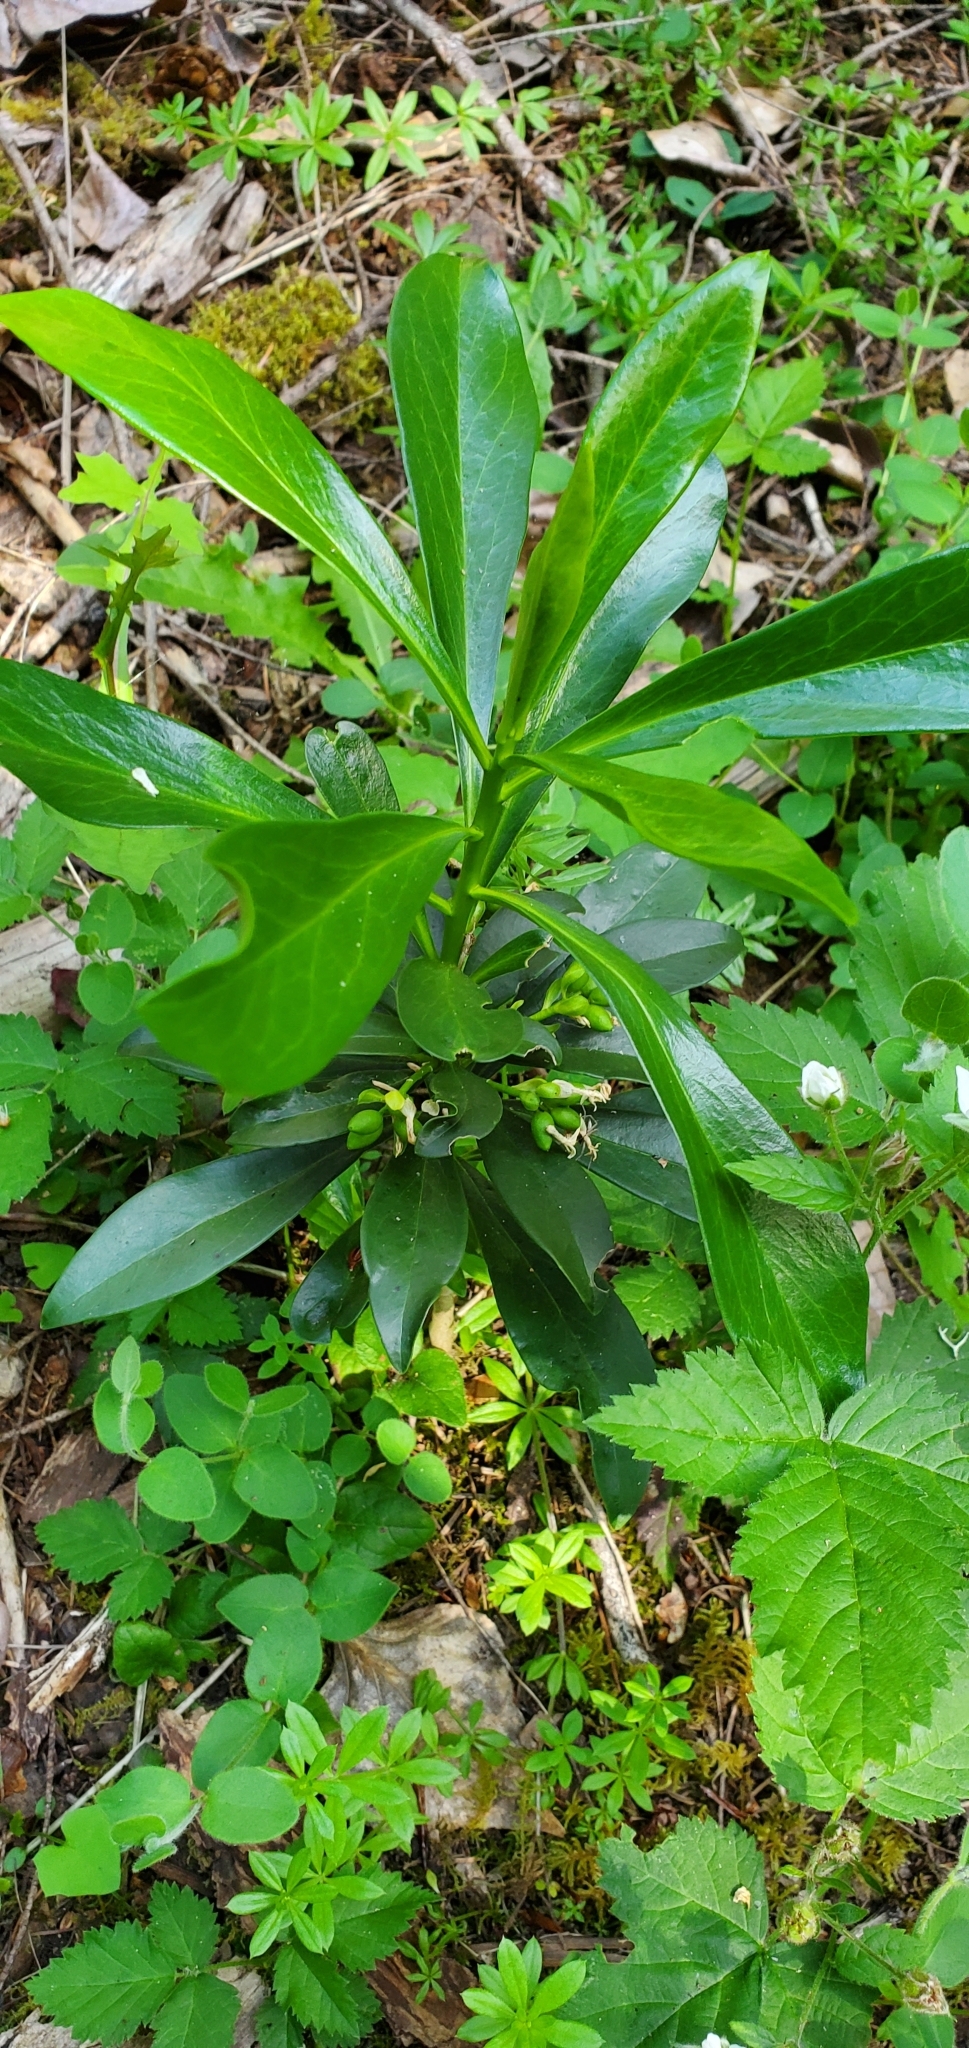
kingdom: Plantae
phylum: Tracheophyta
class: Magnoliopsida
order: Malvales
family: Thymelaeaceae
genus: Daphne
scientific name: Daphne laureola
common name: Spurge-laurel
